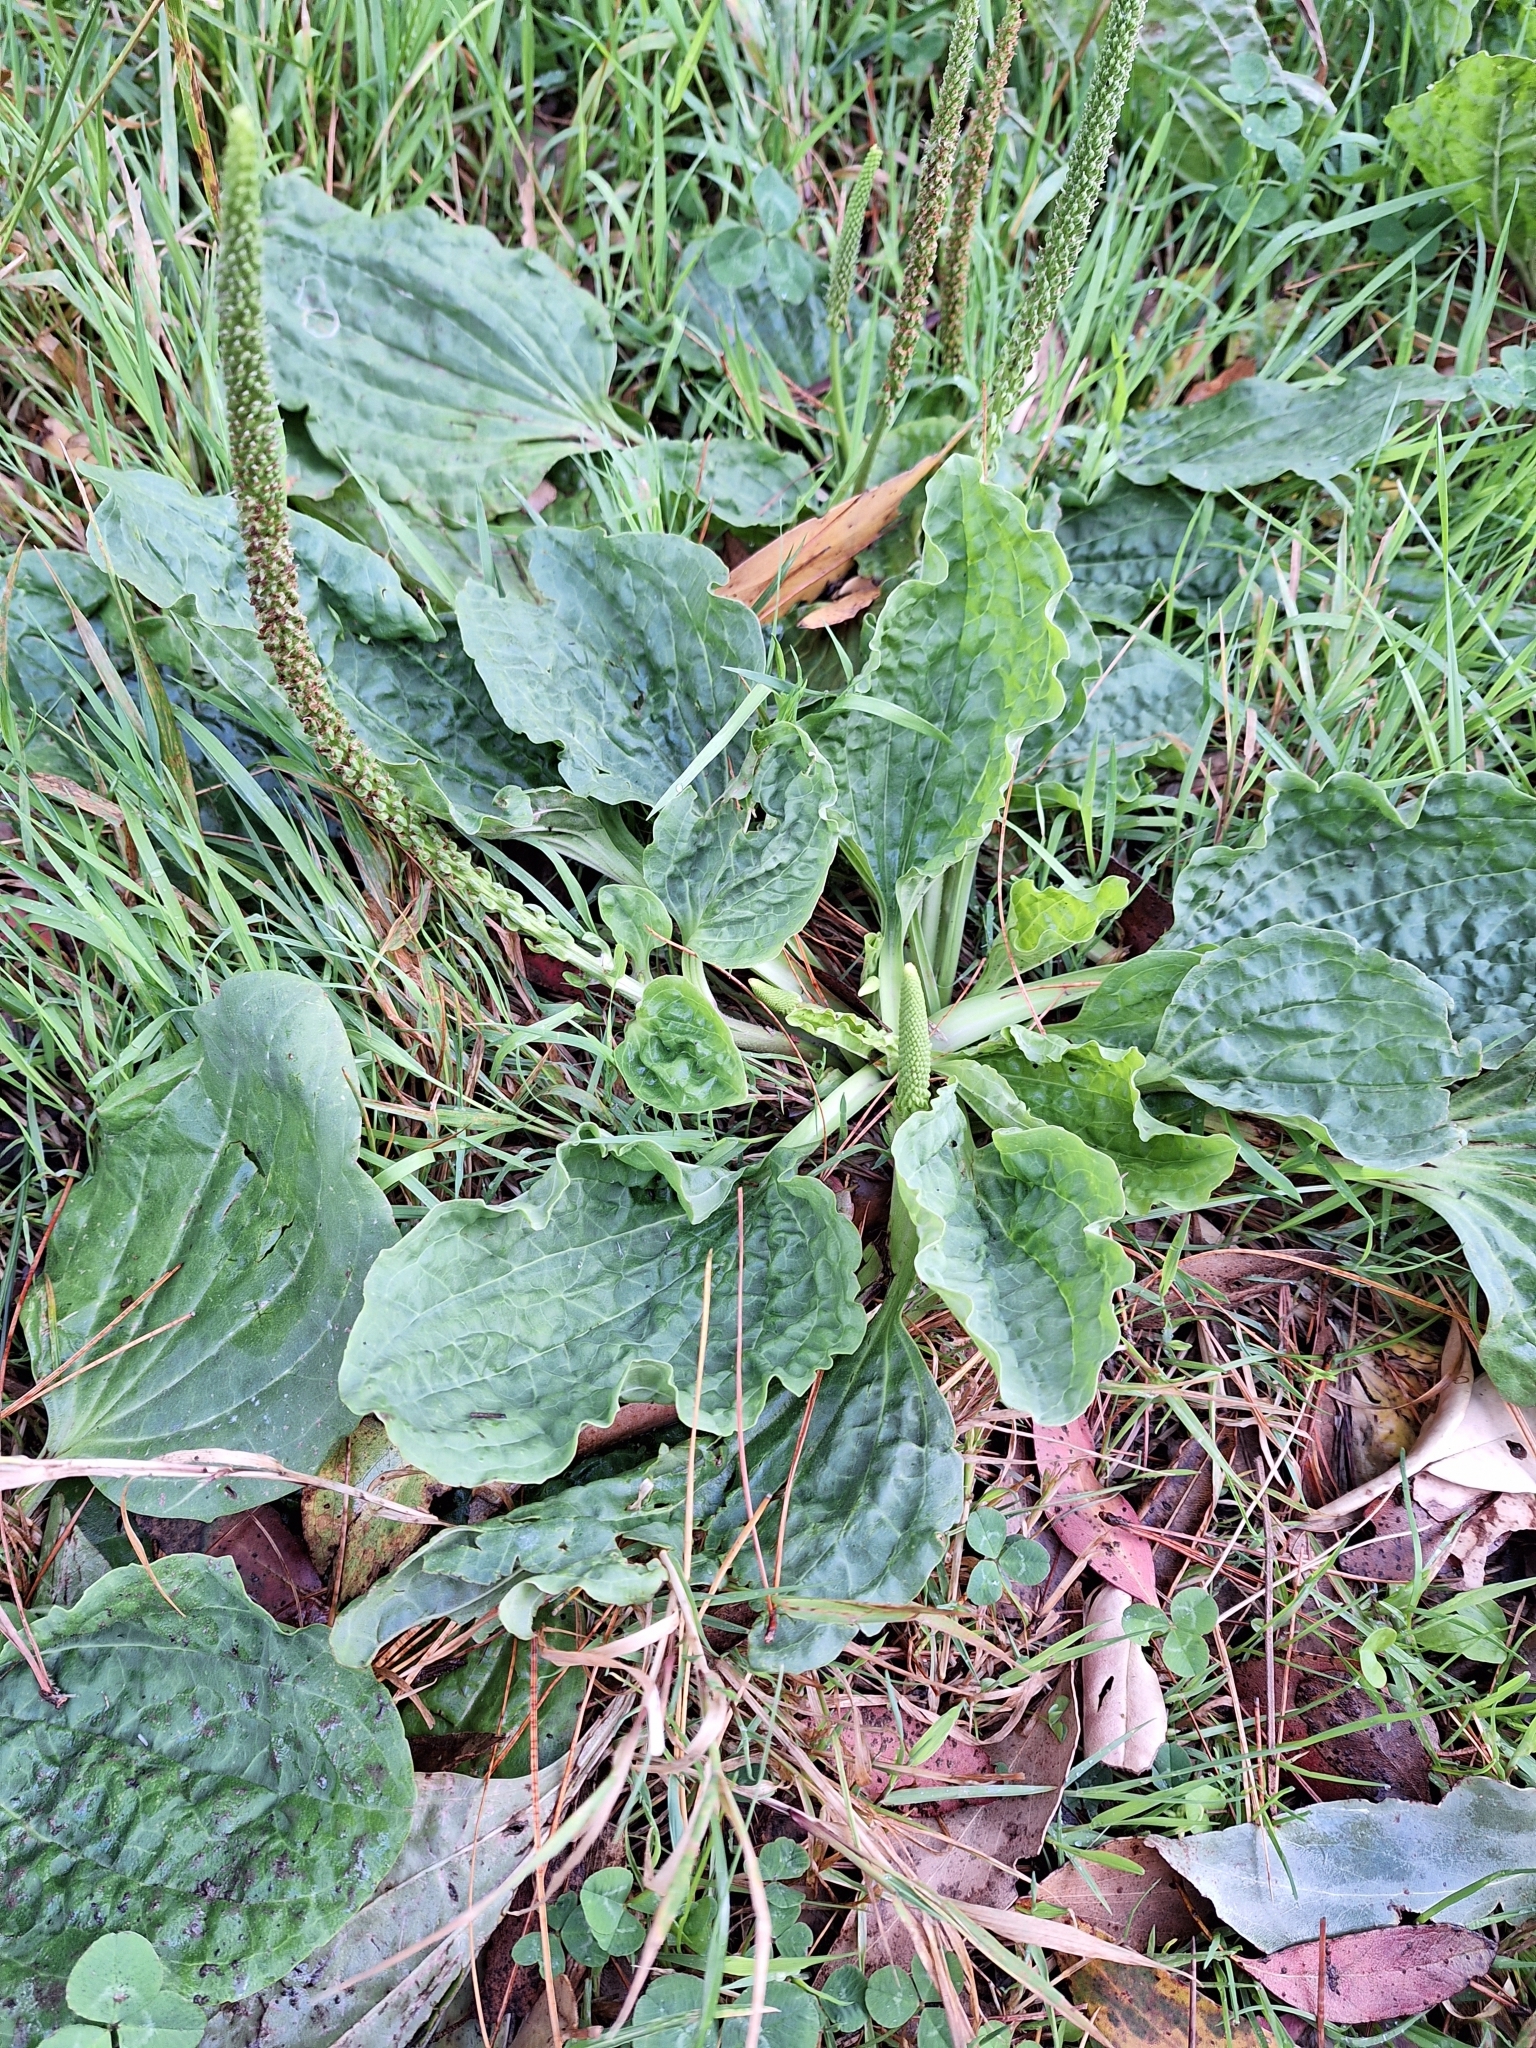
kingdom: Plantae
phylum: Tracheophyta
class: Magnoliopsida
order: Lamiales
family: Plantaginaceae
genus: Plantago
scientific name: Plantago major
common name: Common plantain
